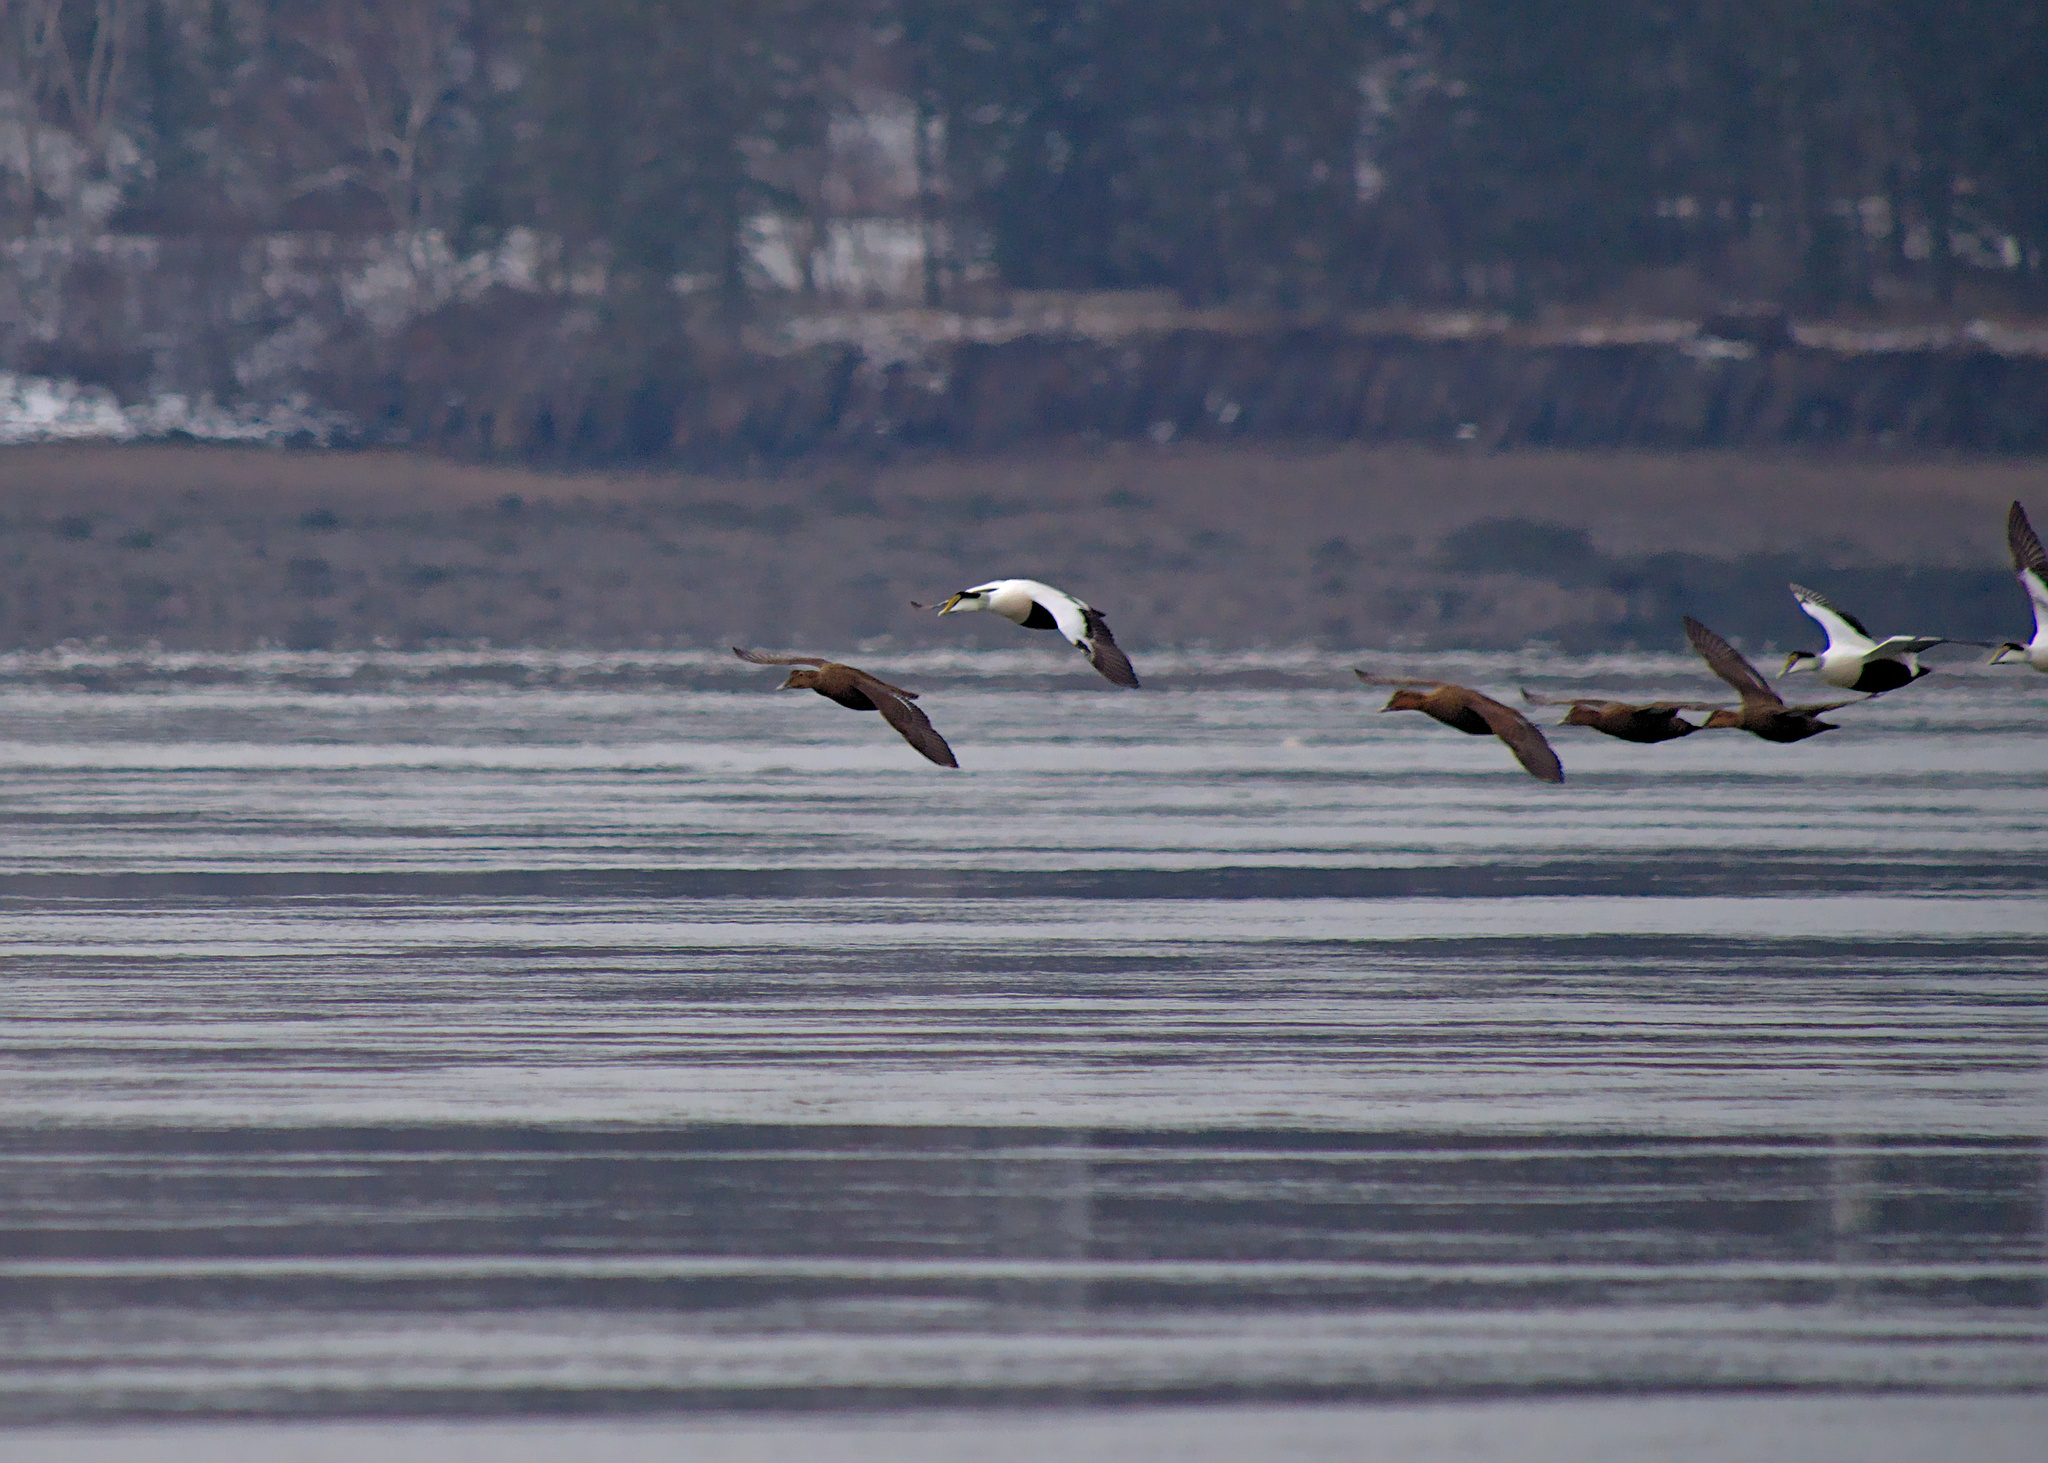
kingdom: Animalia
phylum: Chordata
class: Aves
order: Anseriformes
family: Anatidae
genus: Somateria
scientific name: Somateria mollissima
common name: Common eider
